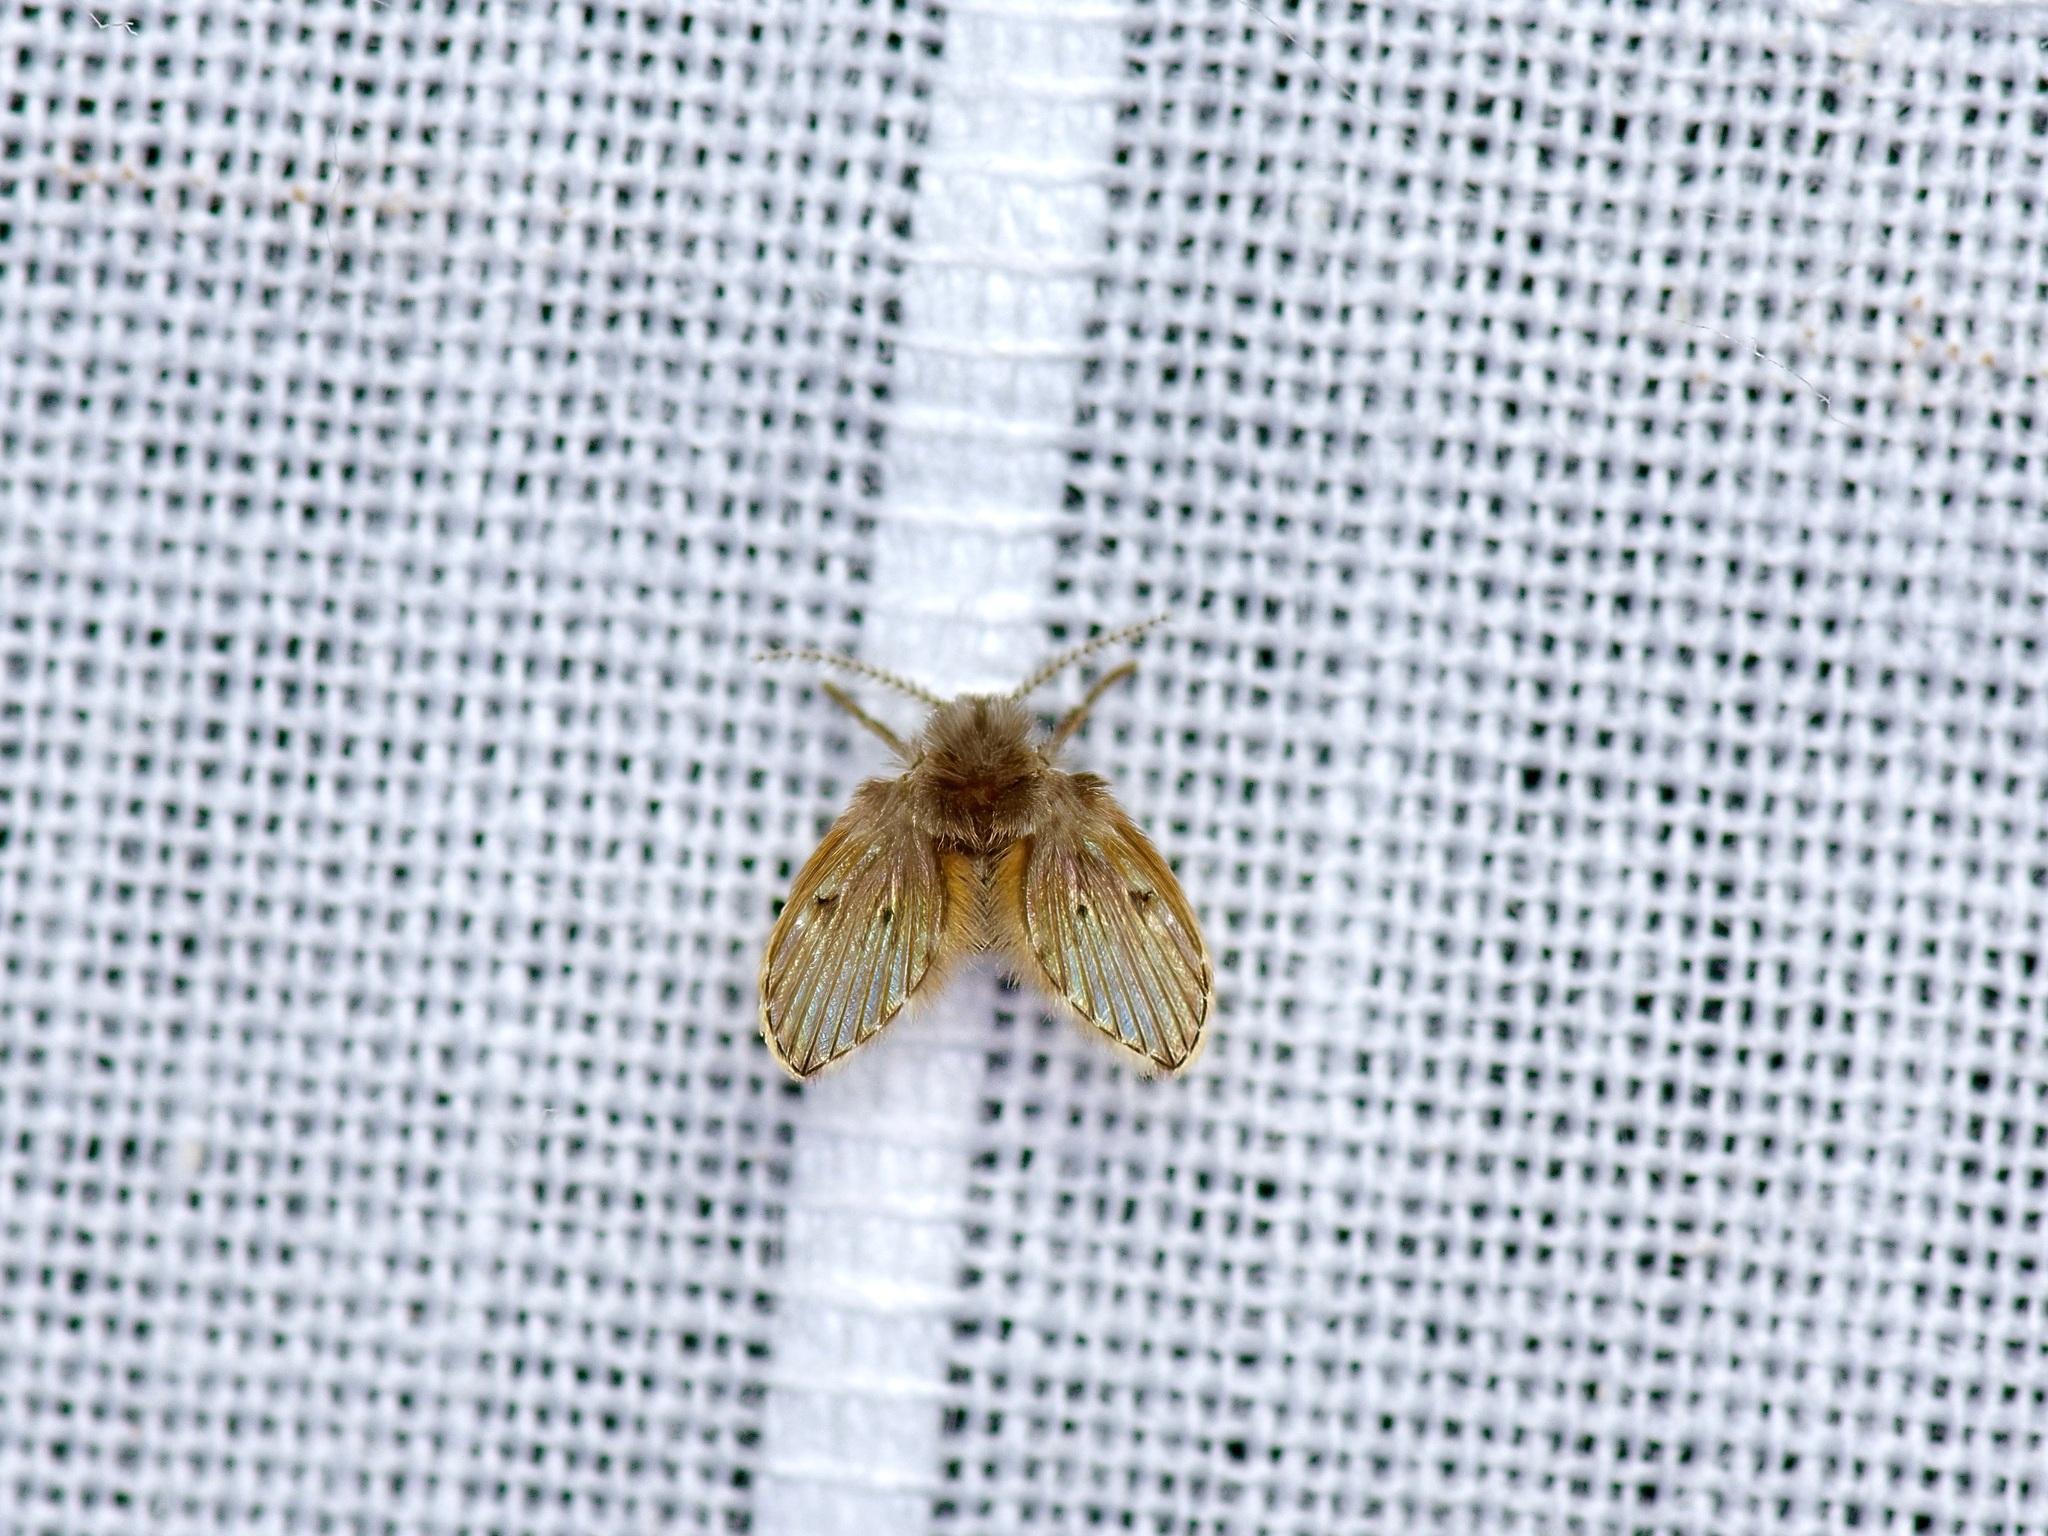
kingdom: Animalia
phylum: Arthropoda
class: Insecta
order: Diptera
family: Psychodidae
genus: Clogmia
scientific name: Clogmia albipunctatus
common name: White-spotted moth fly
